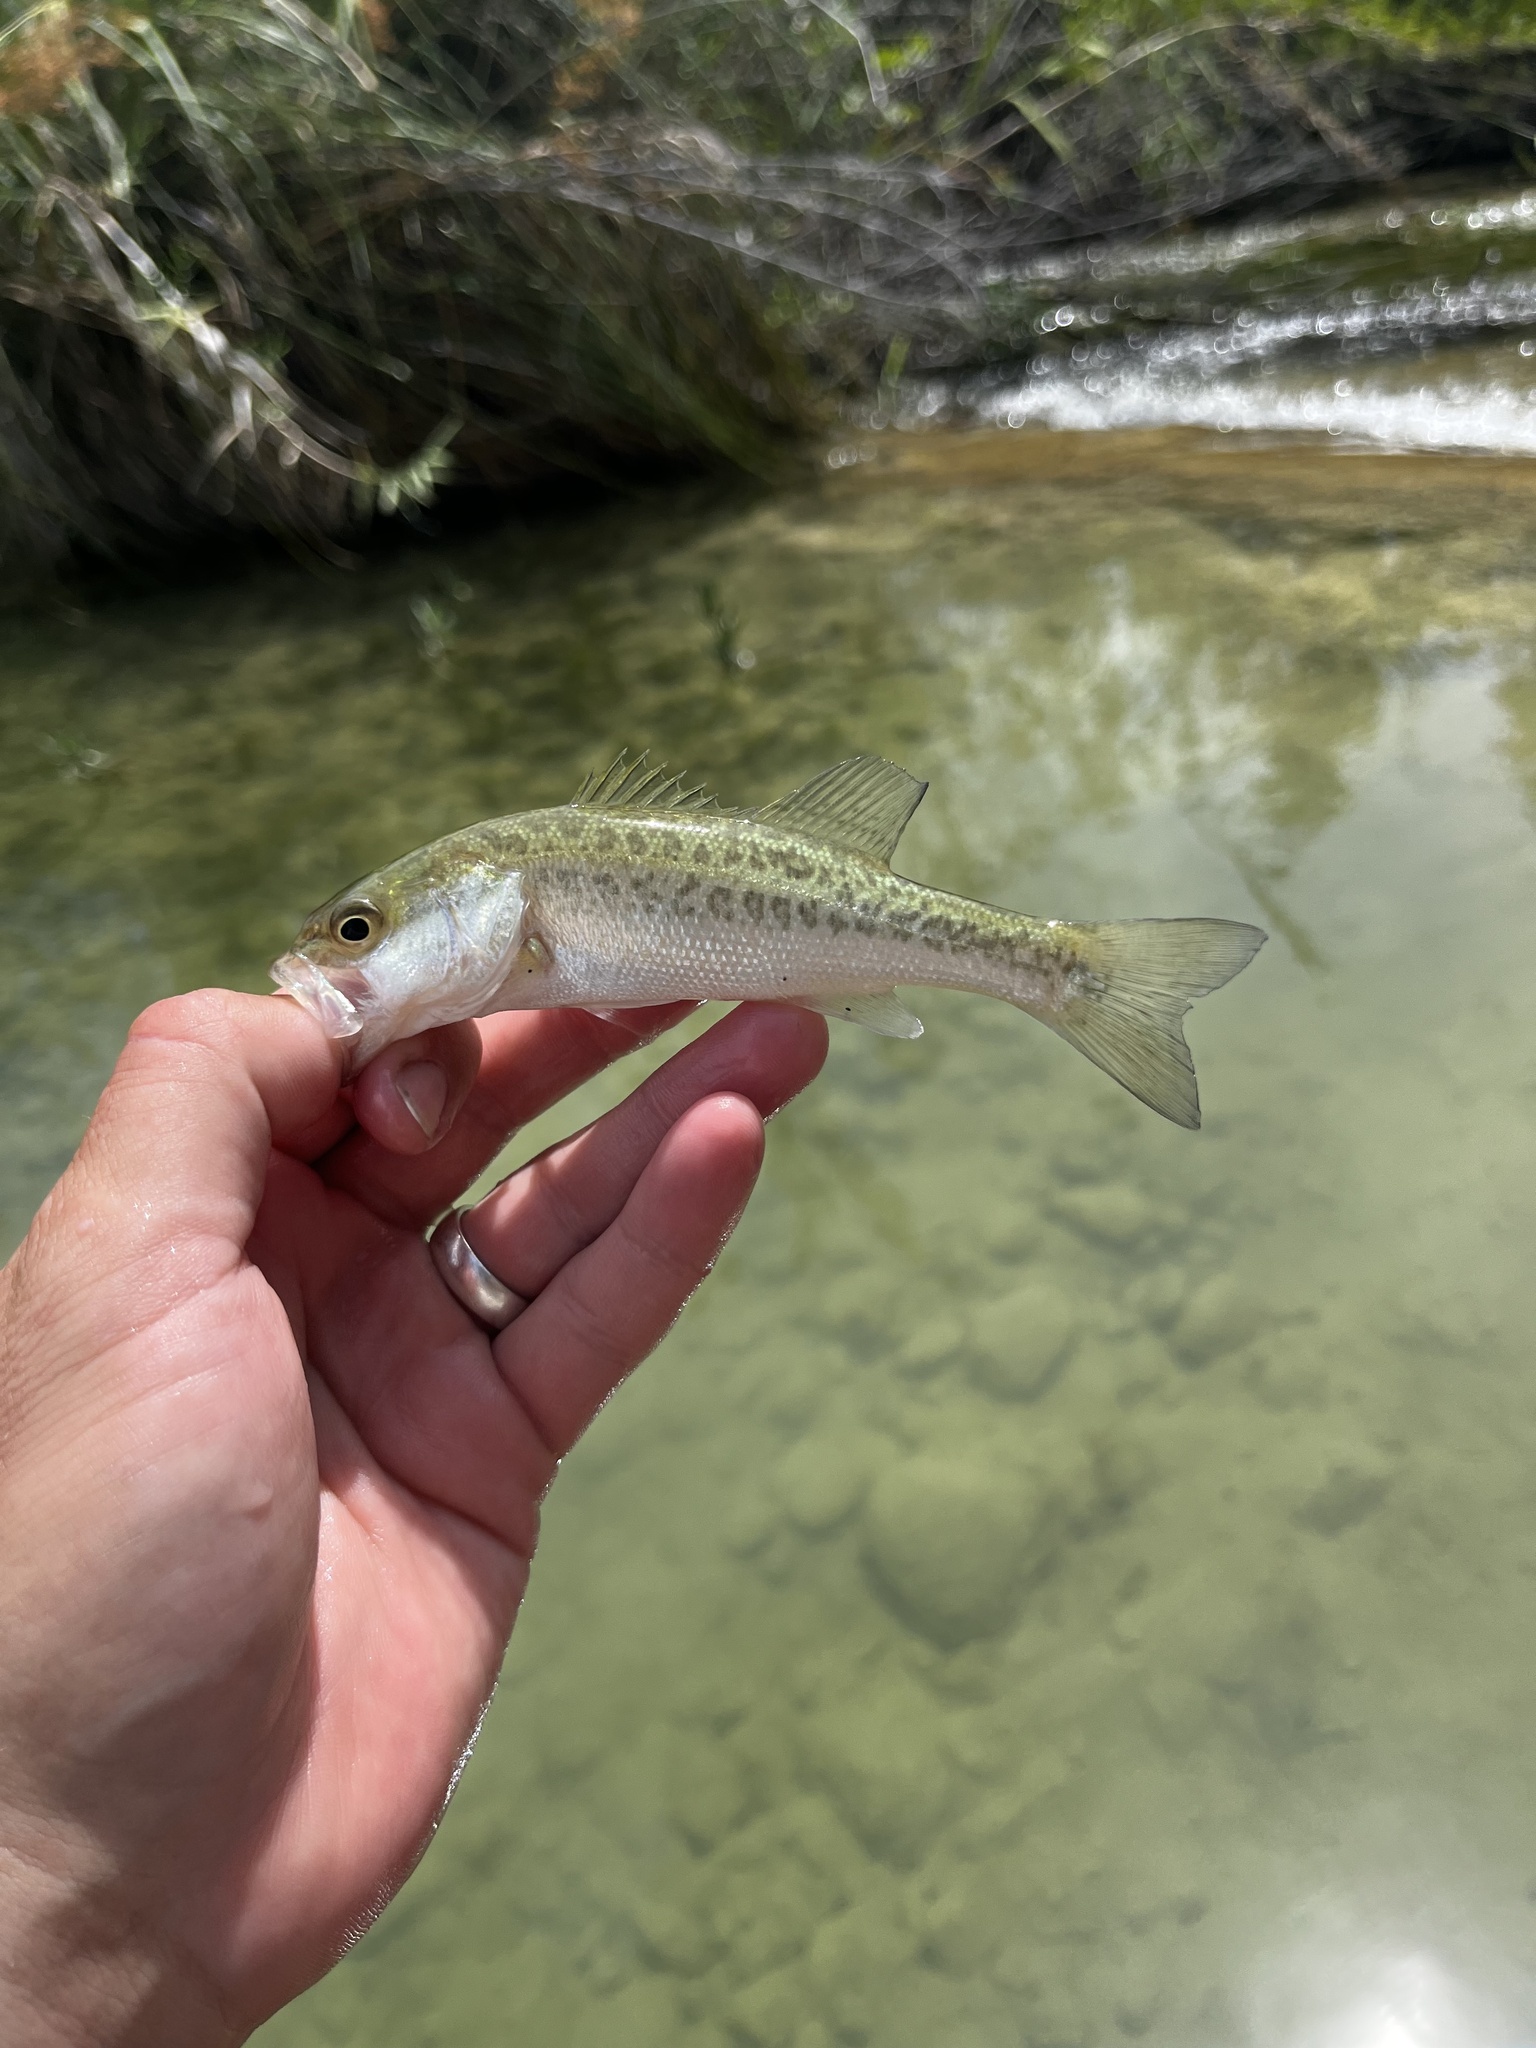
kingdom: Animalia
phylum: Chordata
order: Perciformes
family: Centrarchidae
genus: Micropterus
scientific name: Micropterus
